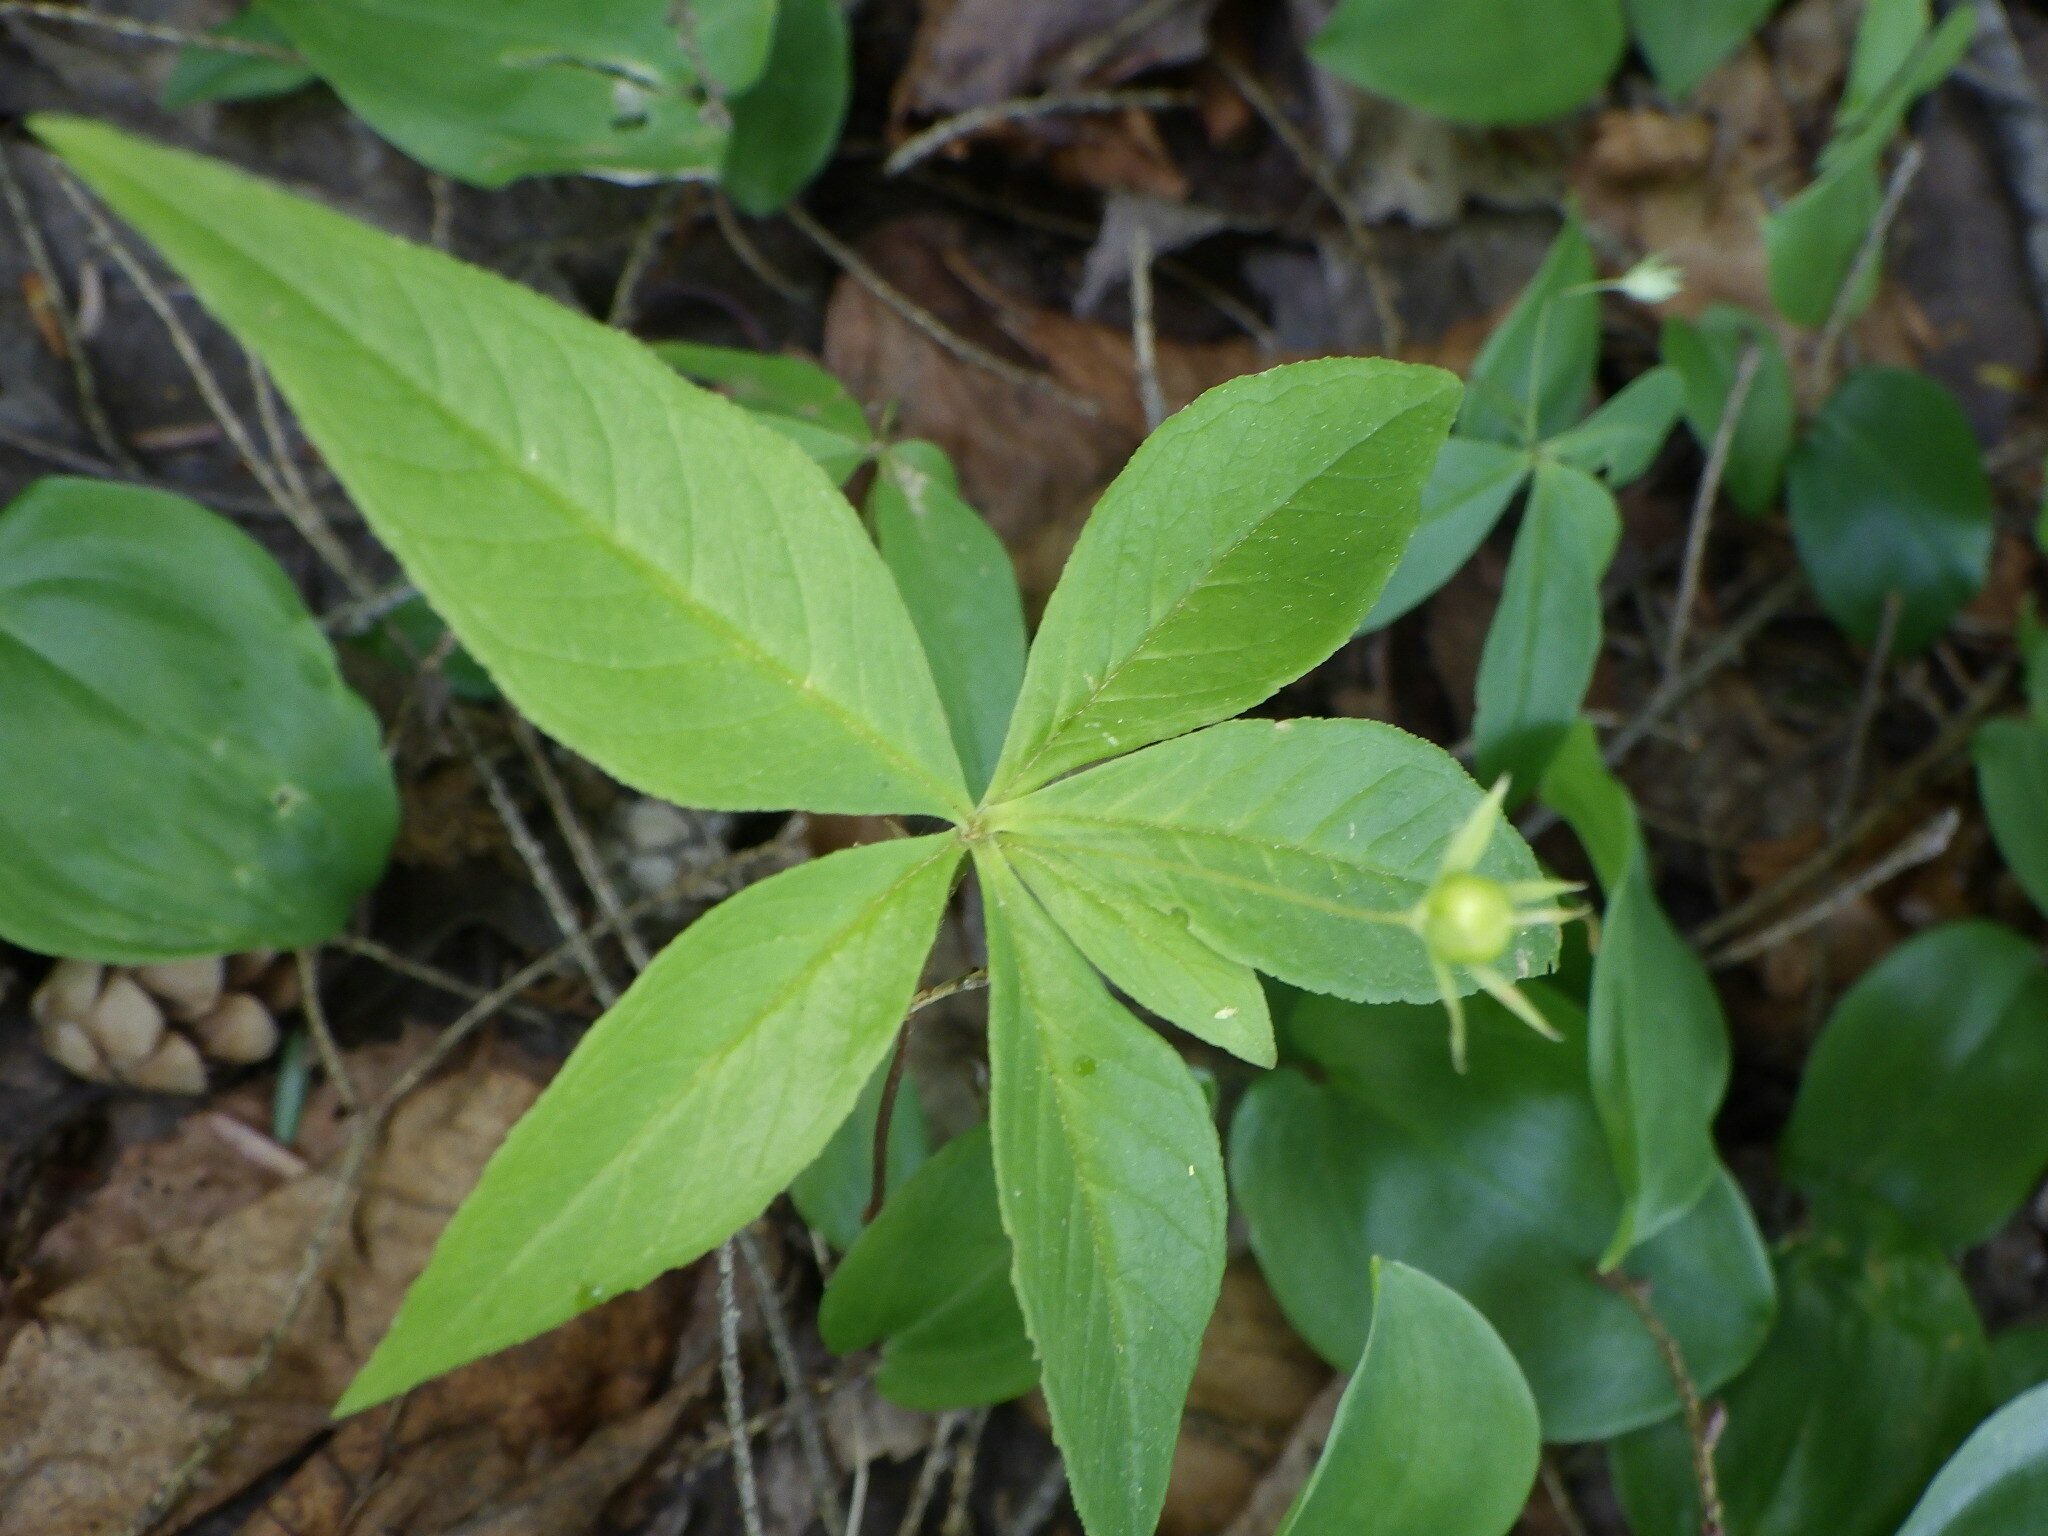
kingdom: Plantae
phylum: Tracheophyta
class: Magnoliopsida
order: Ericales
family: Primulaceae
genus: Lysimachia
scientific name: Lysimachia borealis
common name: American starflower
